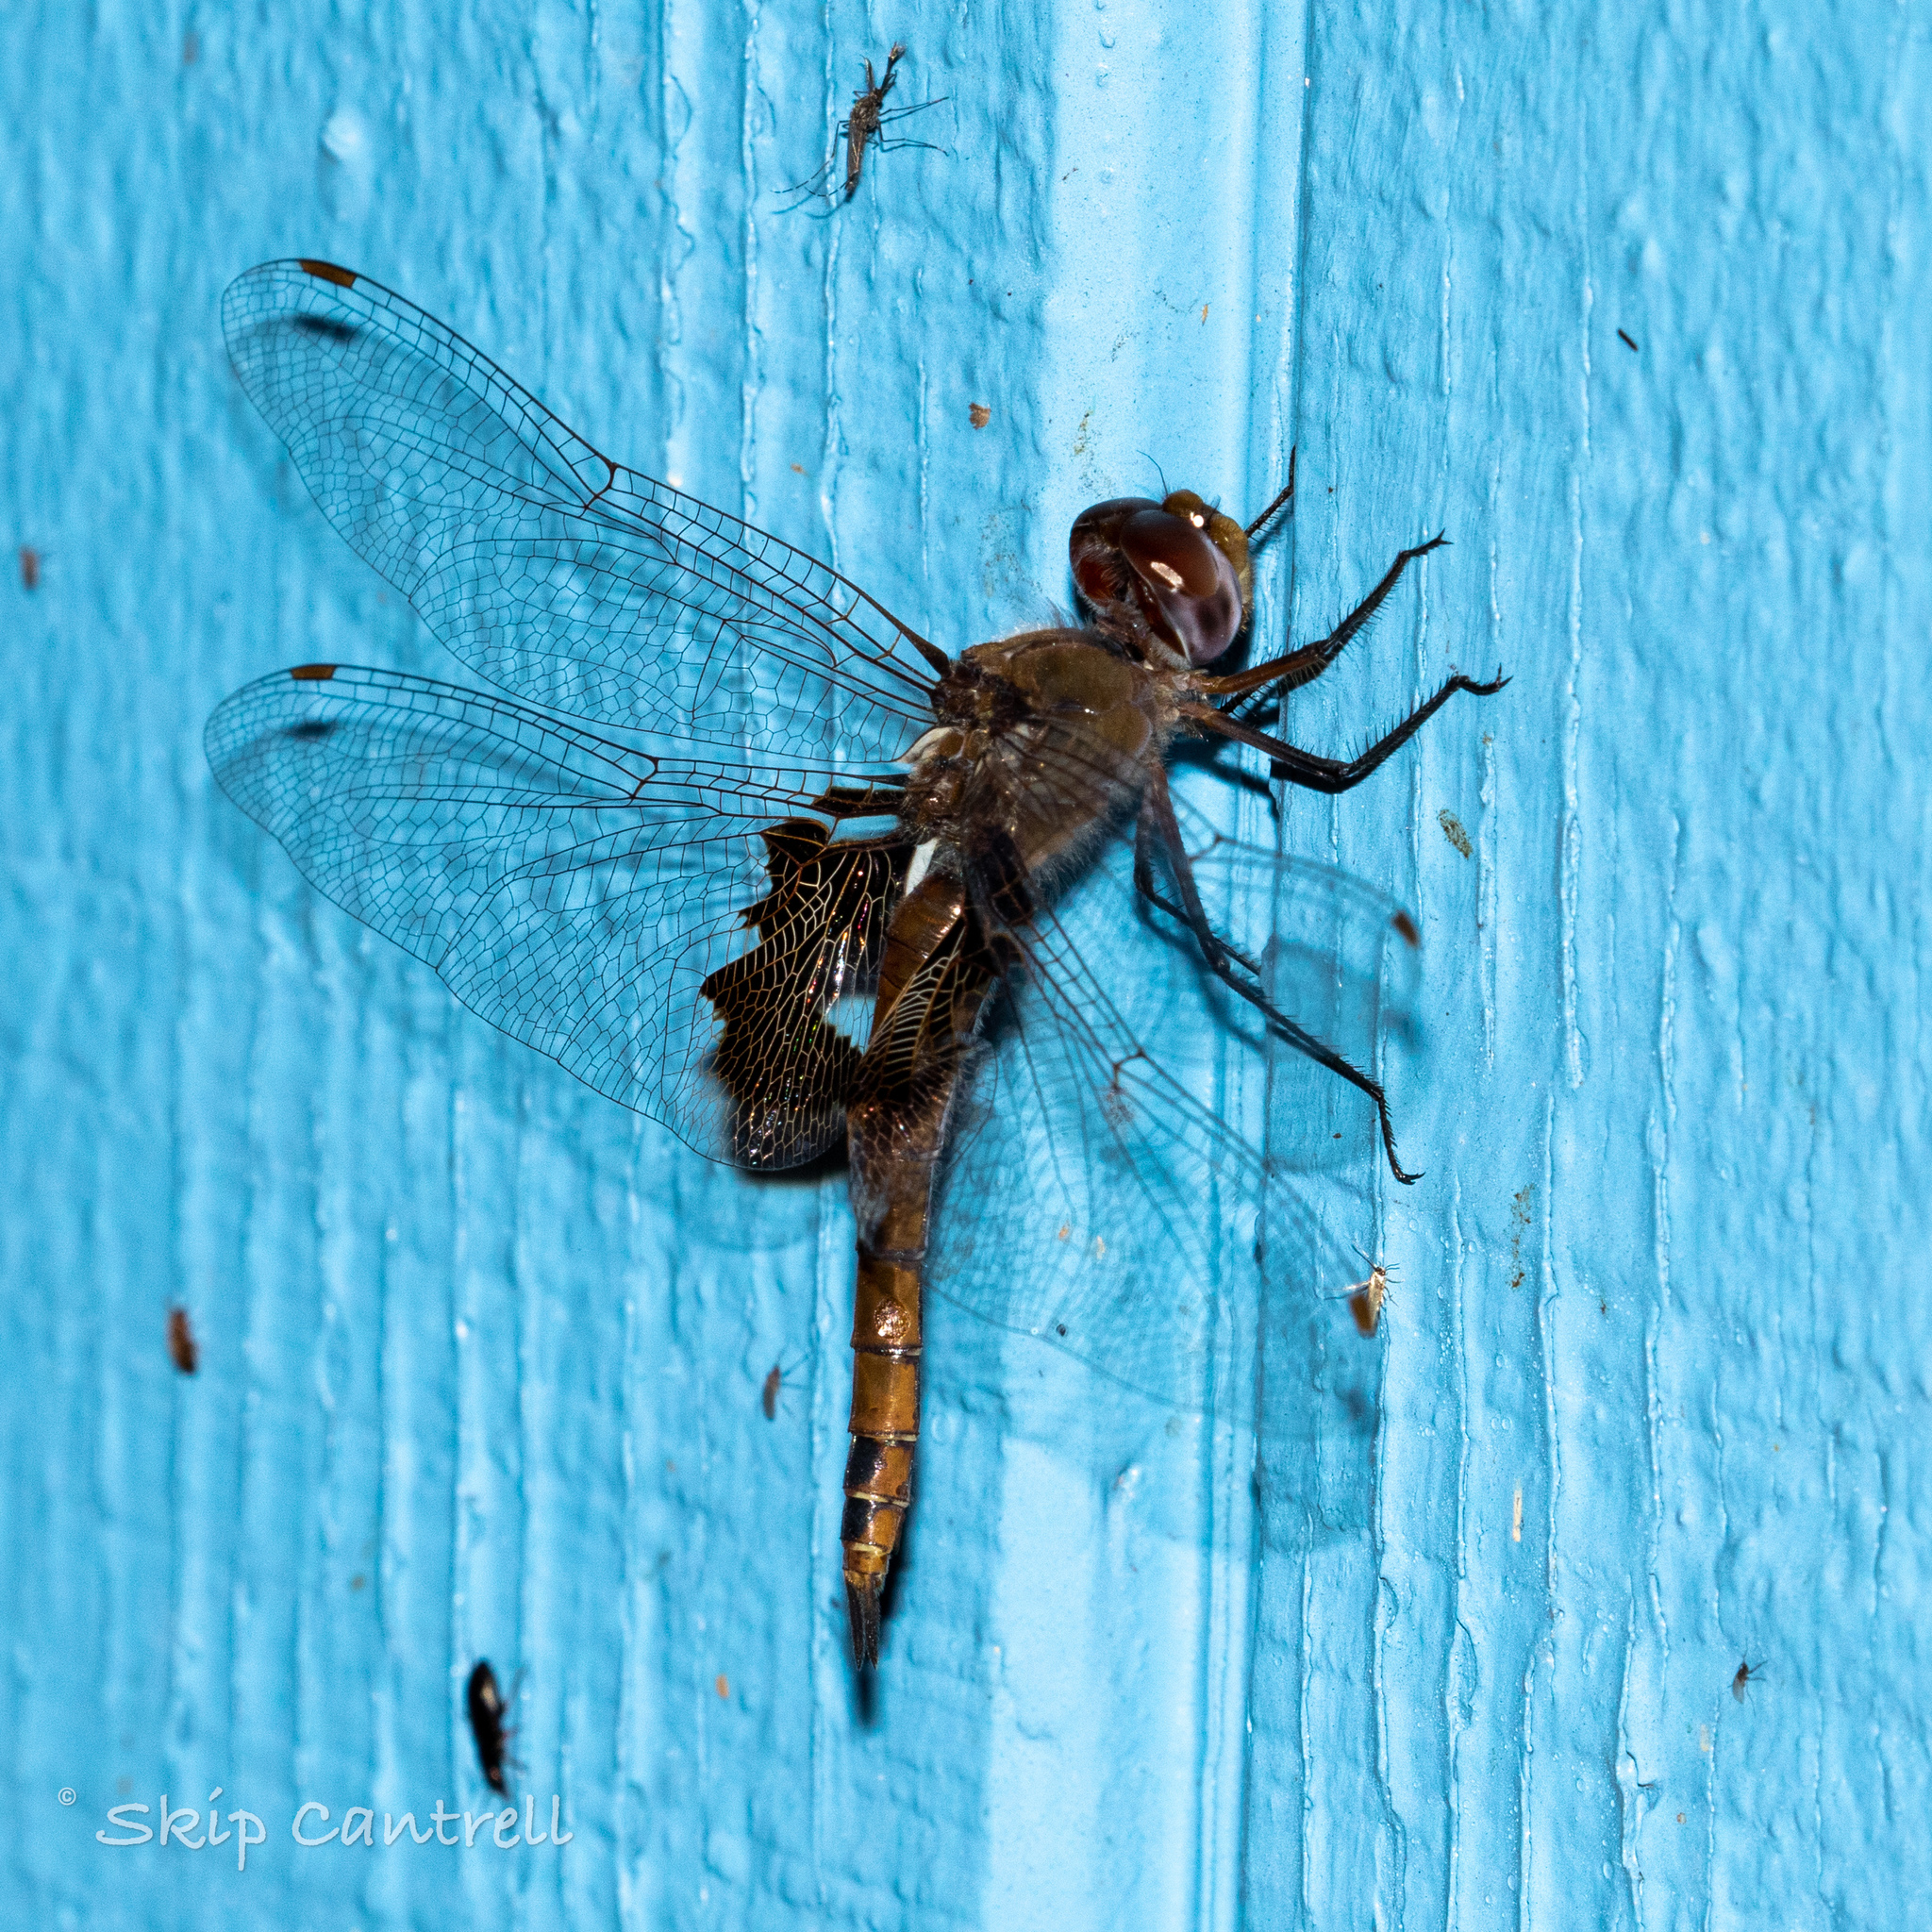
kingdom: Animalia
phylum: Arthropoda
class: Insecta
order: Odonata
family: Libellulidae
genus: Tramea
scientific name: Tramea onusta
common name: Red saddlebags
